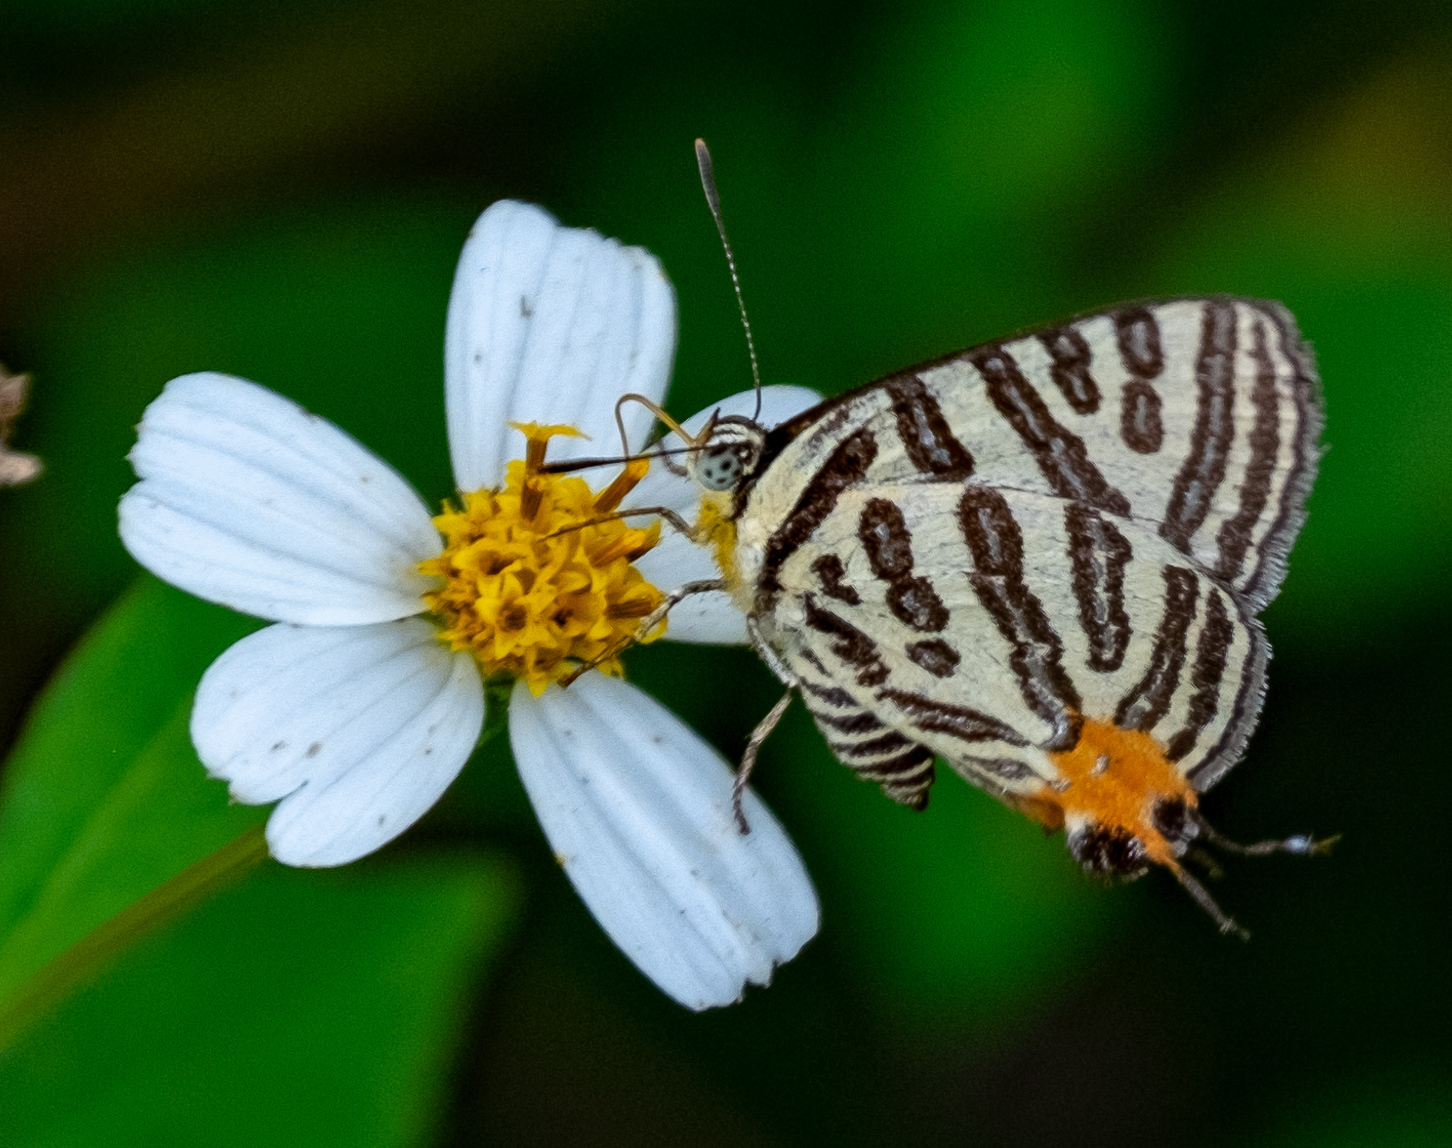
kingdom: Animalia
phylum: Arthropoda
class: Insecta
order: Lepidoptera
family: Lycaenidae
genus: Cigaritis
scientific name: Cigaritis syama
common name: Club silverline
